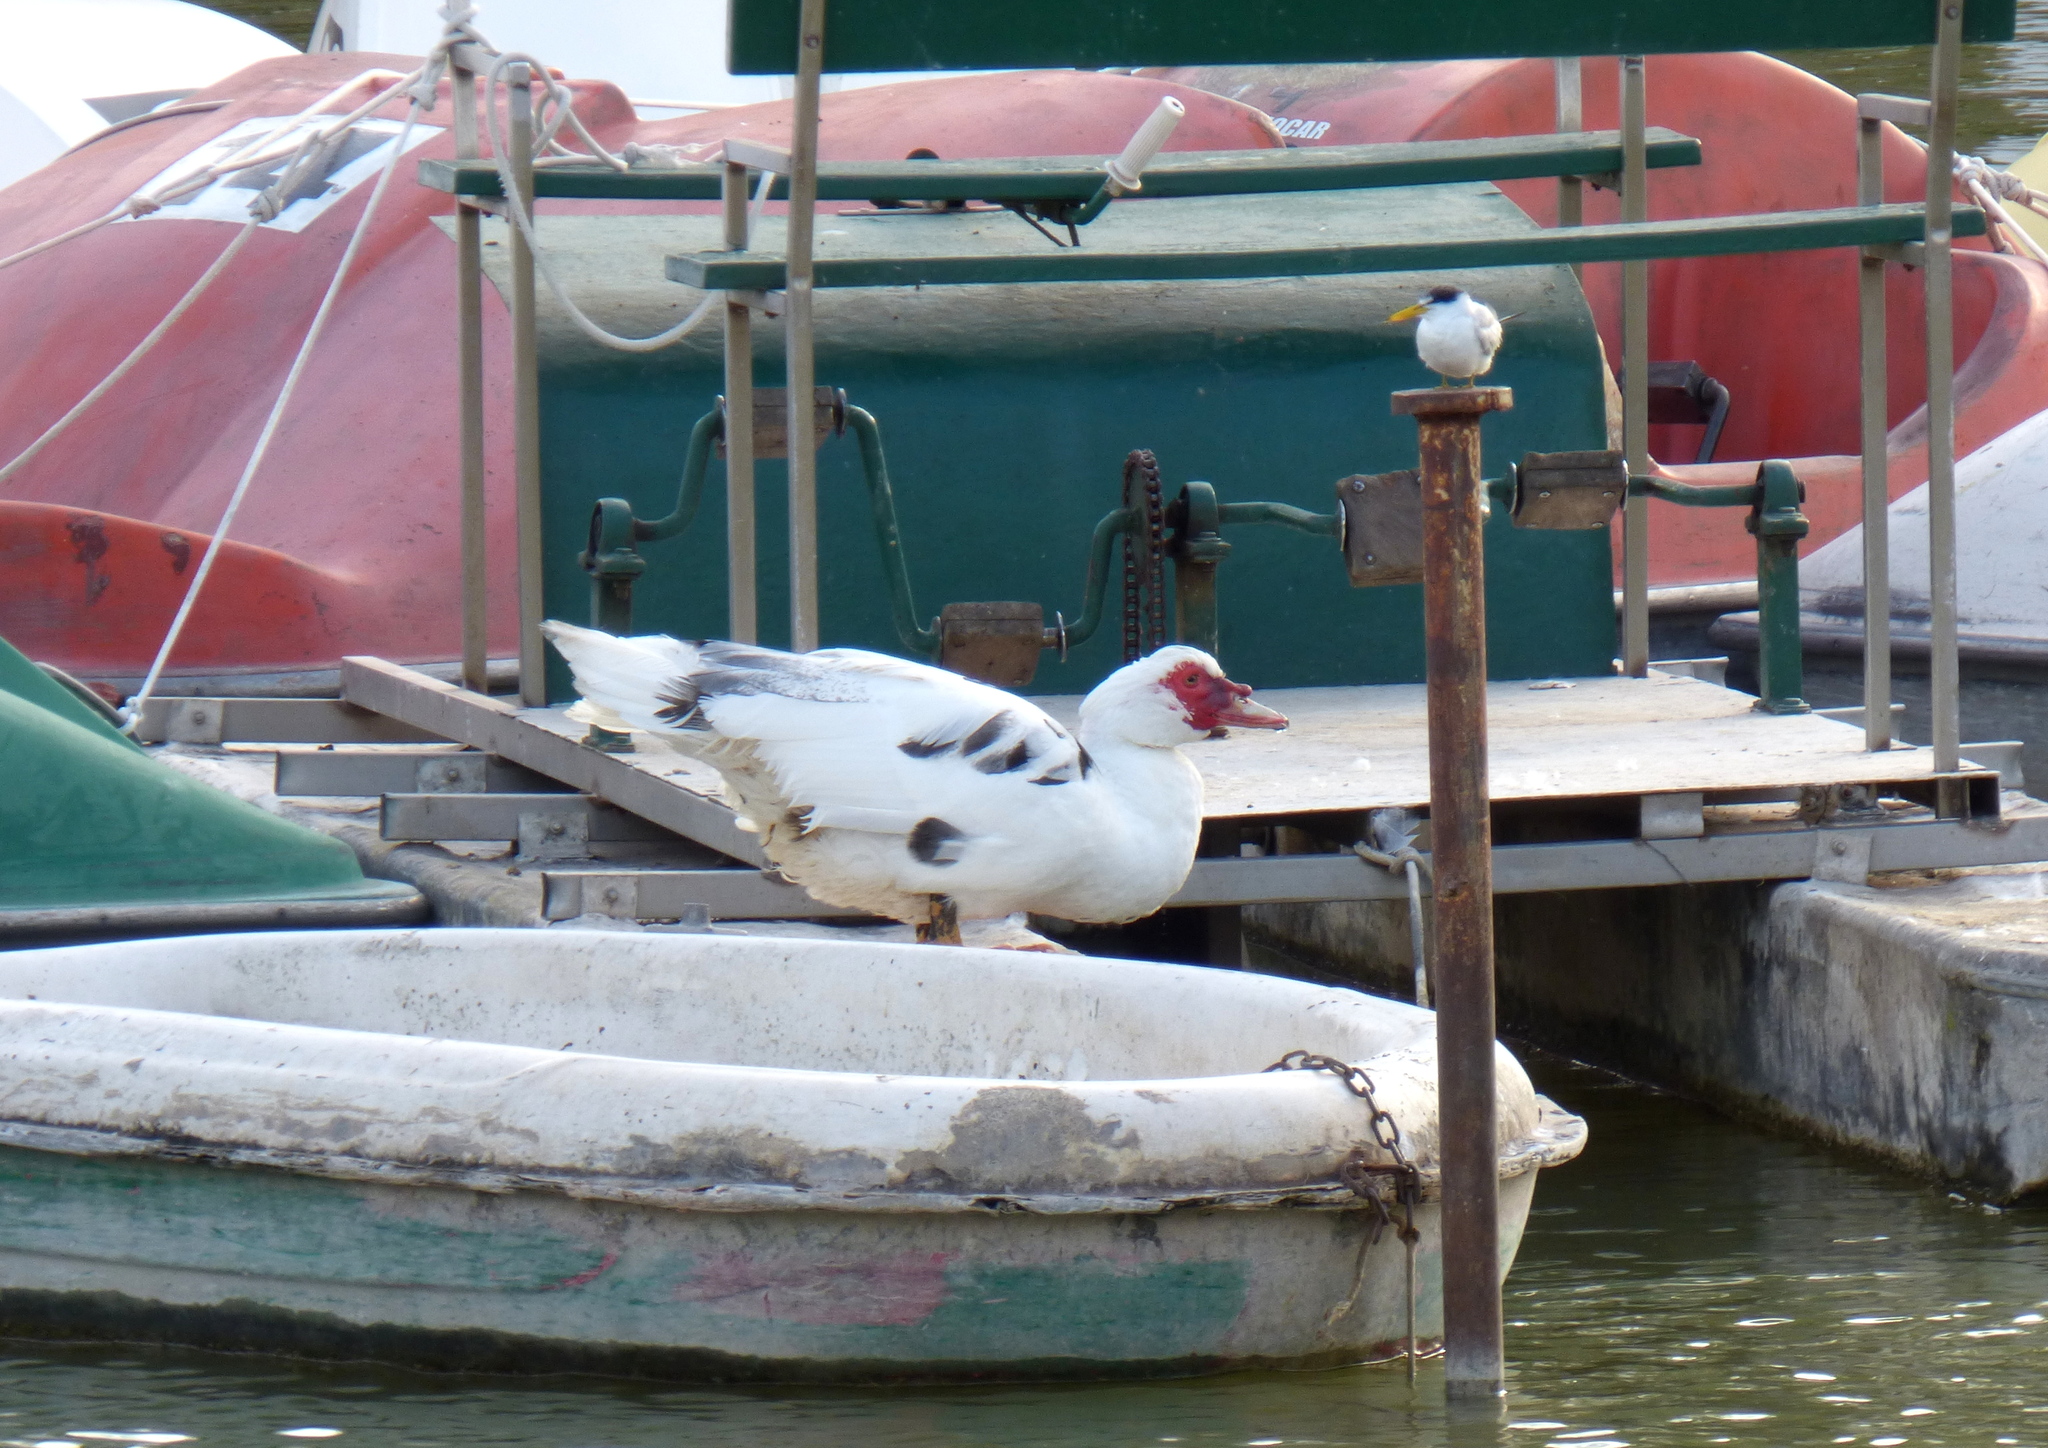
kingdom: Animalia
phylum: Chordata
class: Aves
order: Anseriformes
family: Anatidae
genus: Cairina
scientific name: Cairina moschata
